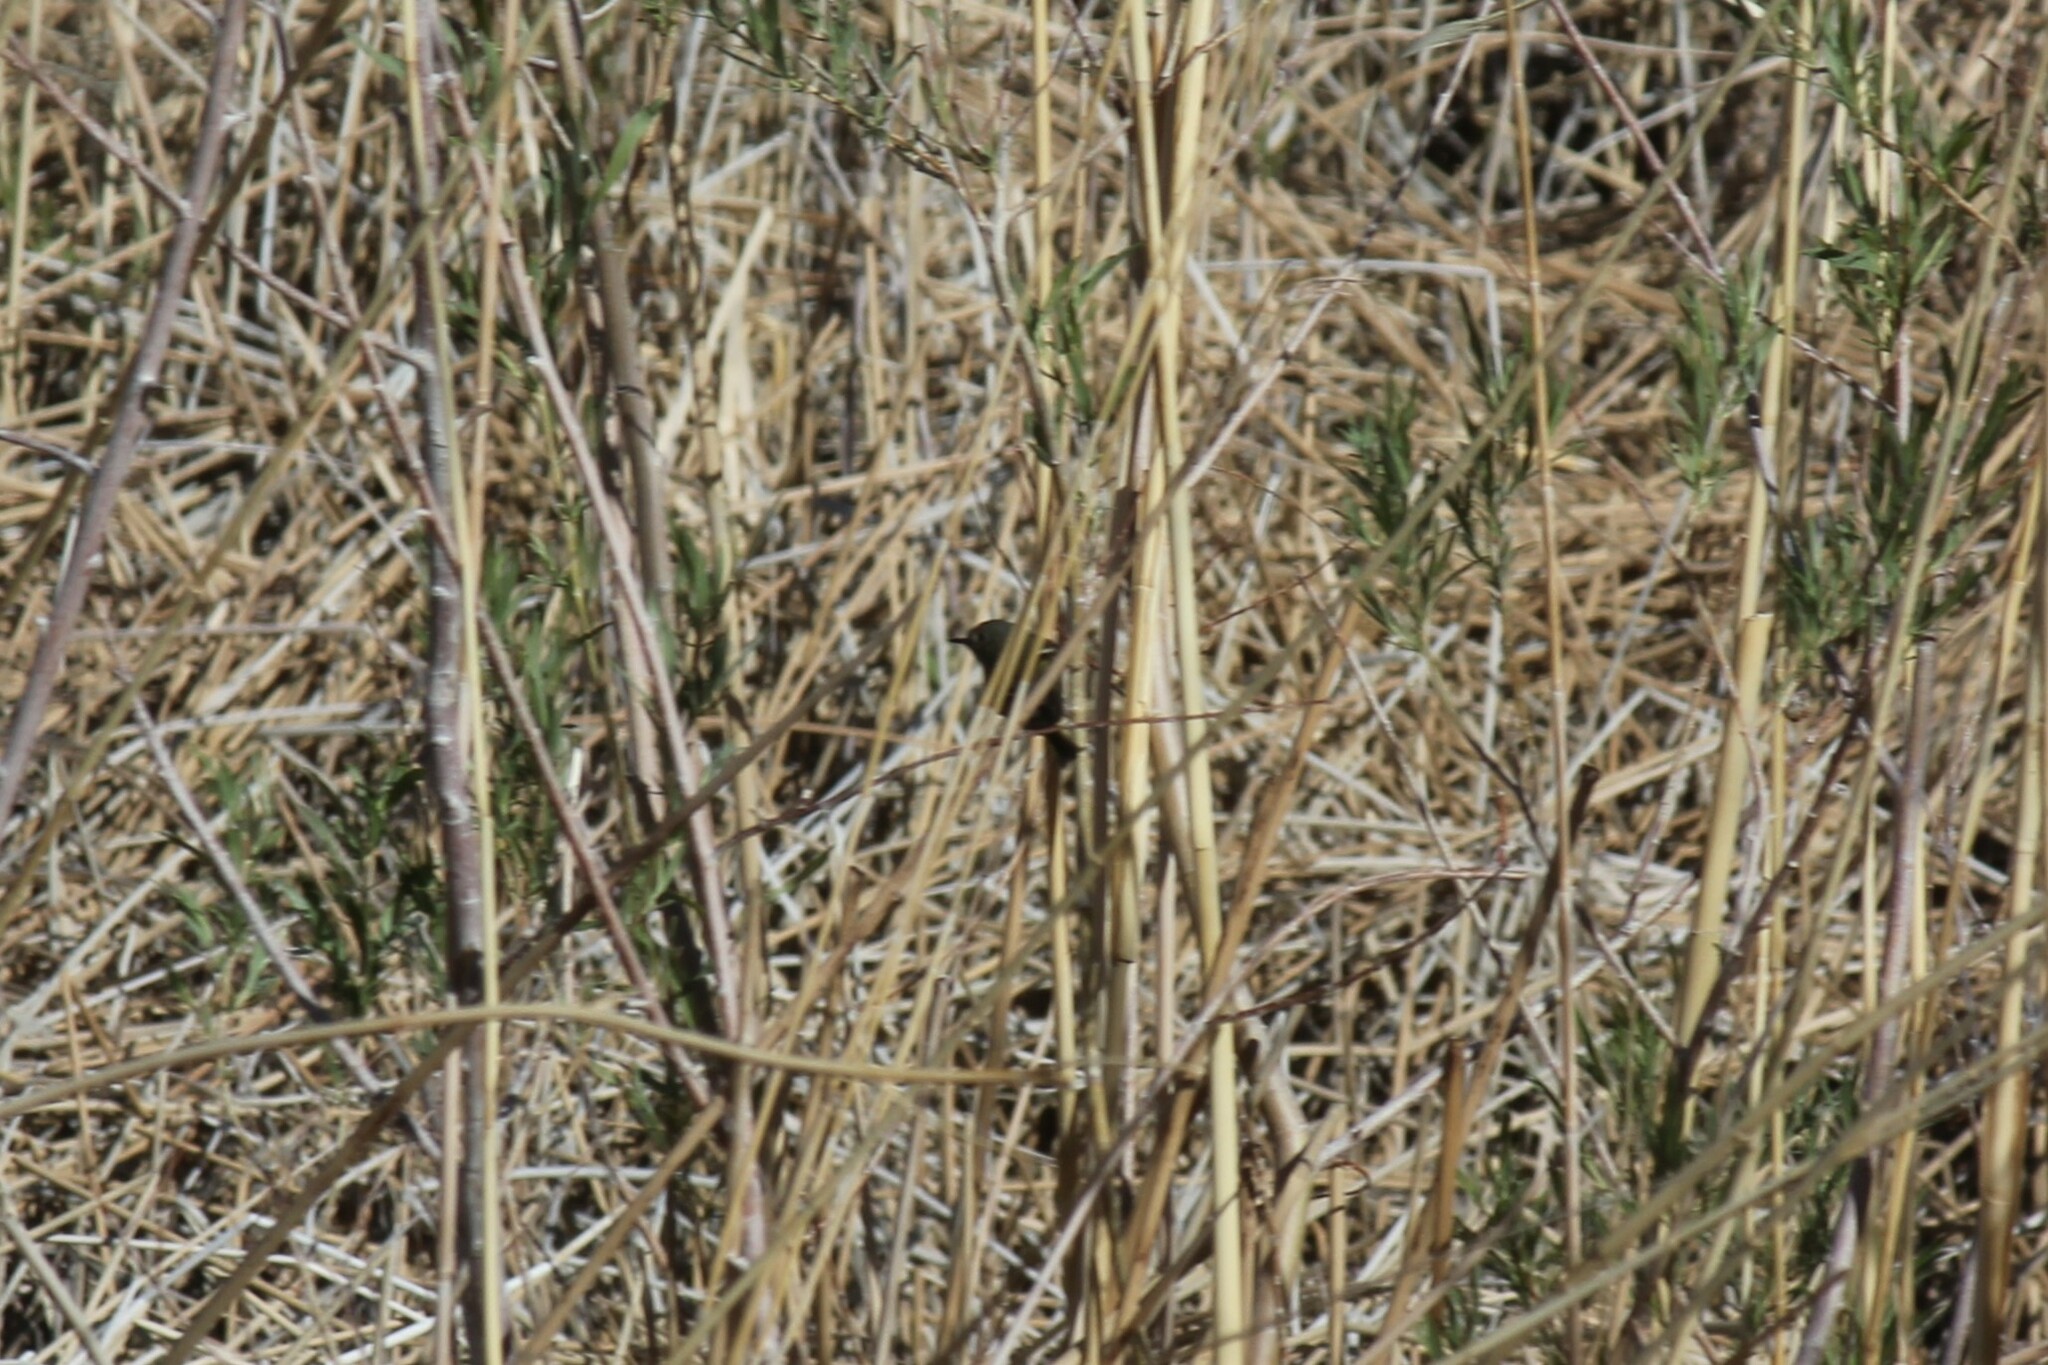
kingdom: Animalia
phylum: Chordata
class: Aves
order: Passeriformes
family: Regulidae
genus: Regulus
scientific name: Regulus calendula
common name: Ruby-crowned kinglet
